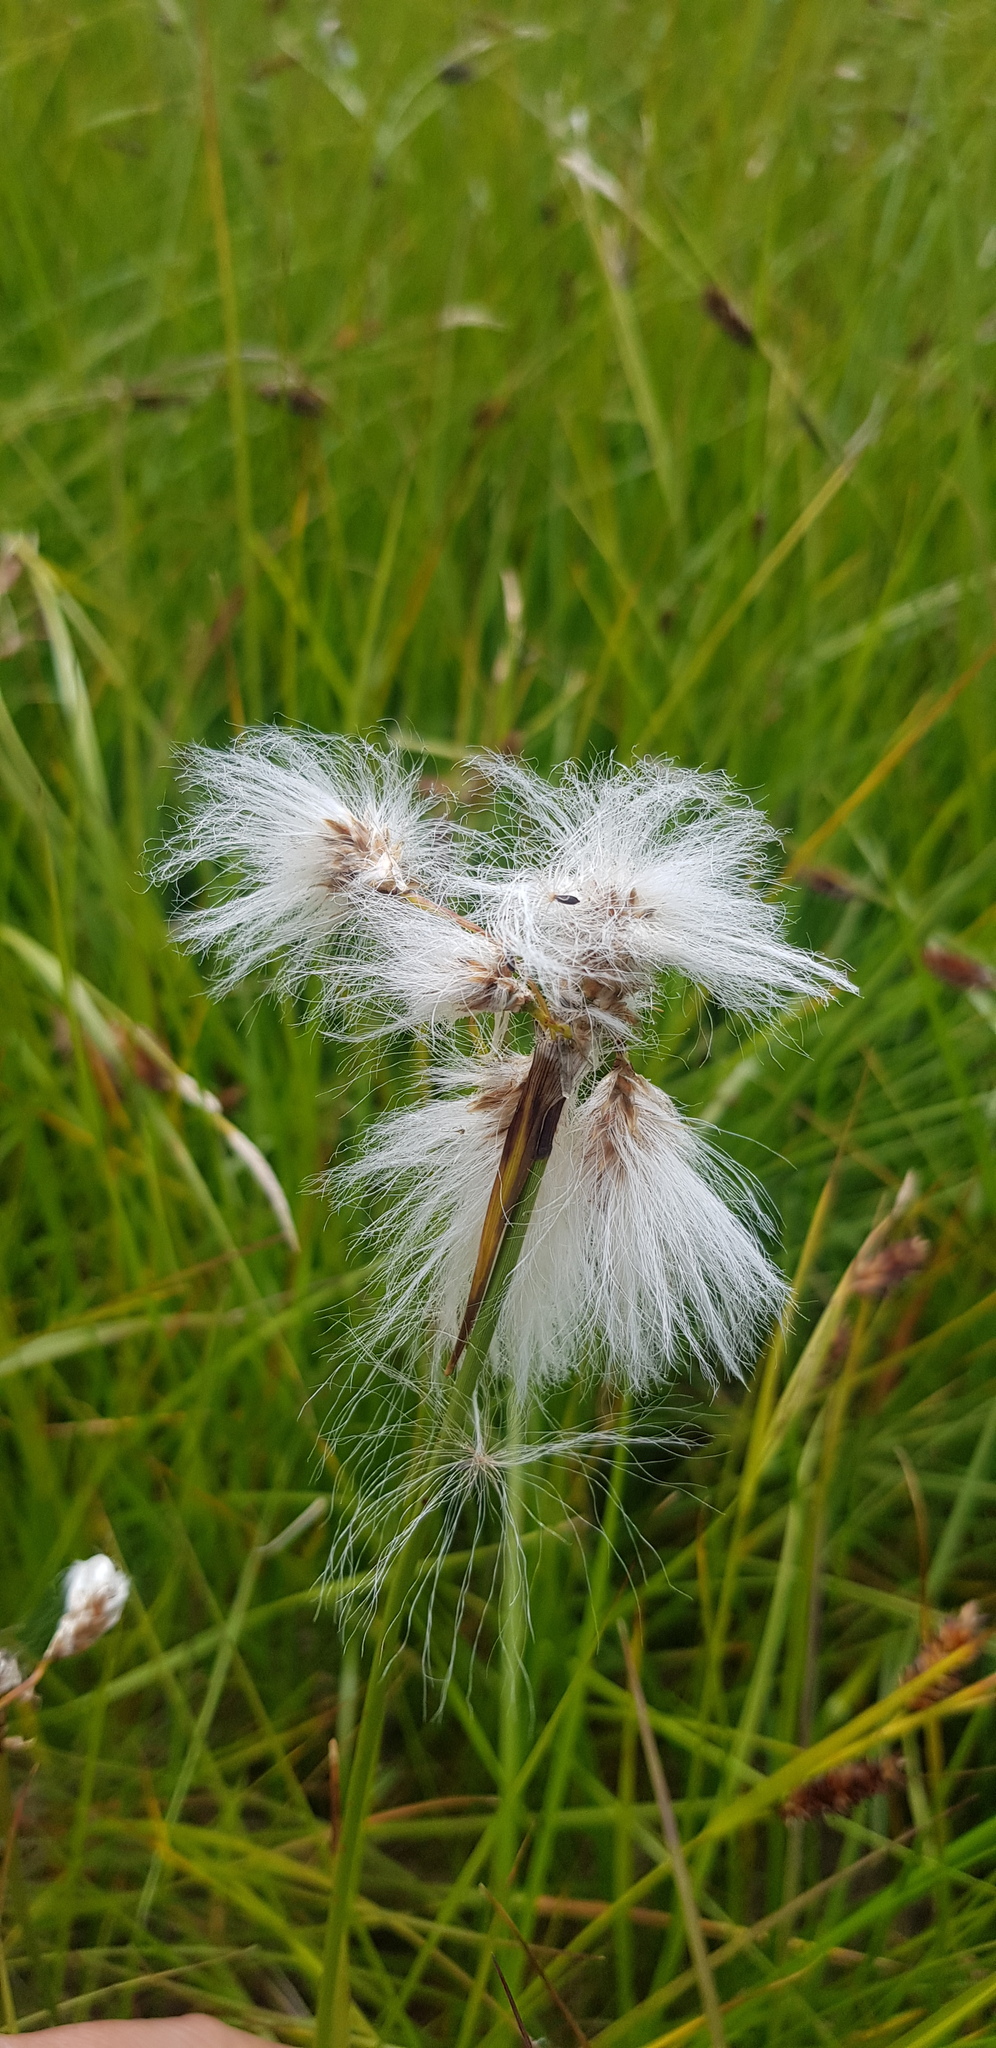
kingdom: Plantae
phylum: Tracheophyta
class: Liliopsida
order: Poales
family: Cyperaceae
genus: Eriophorum
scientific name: Eriophorum angustifolium
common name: Common cottongrass
